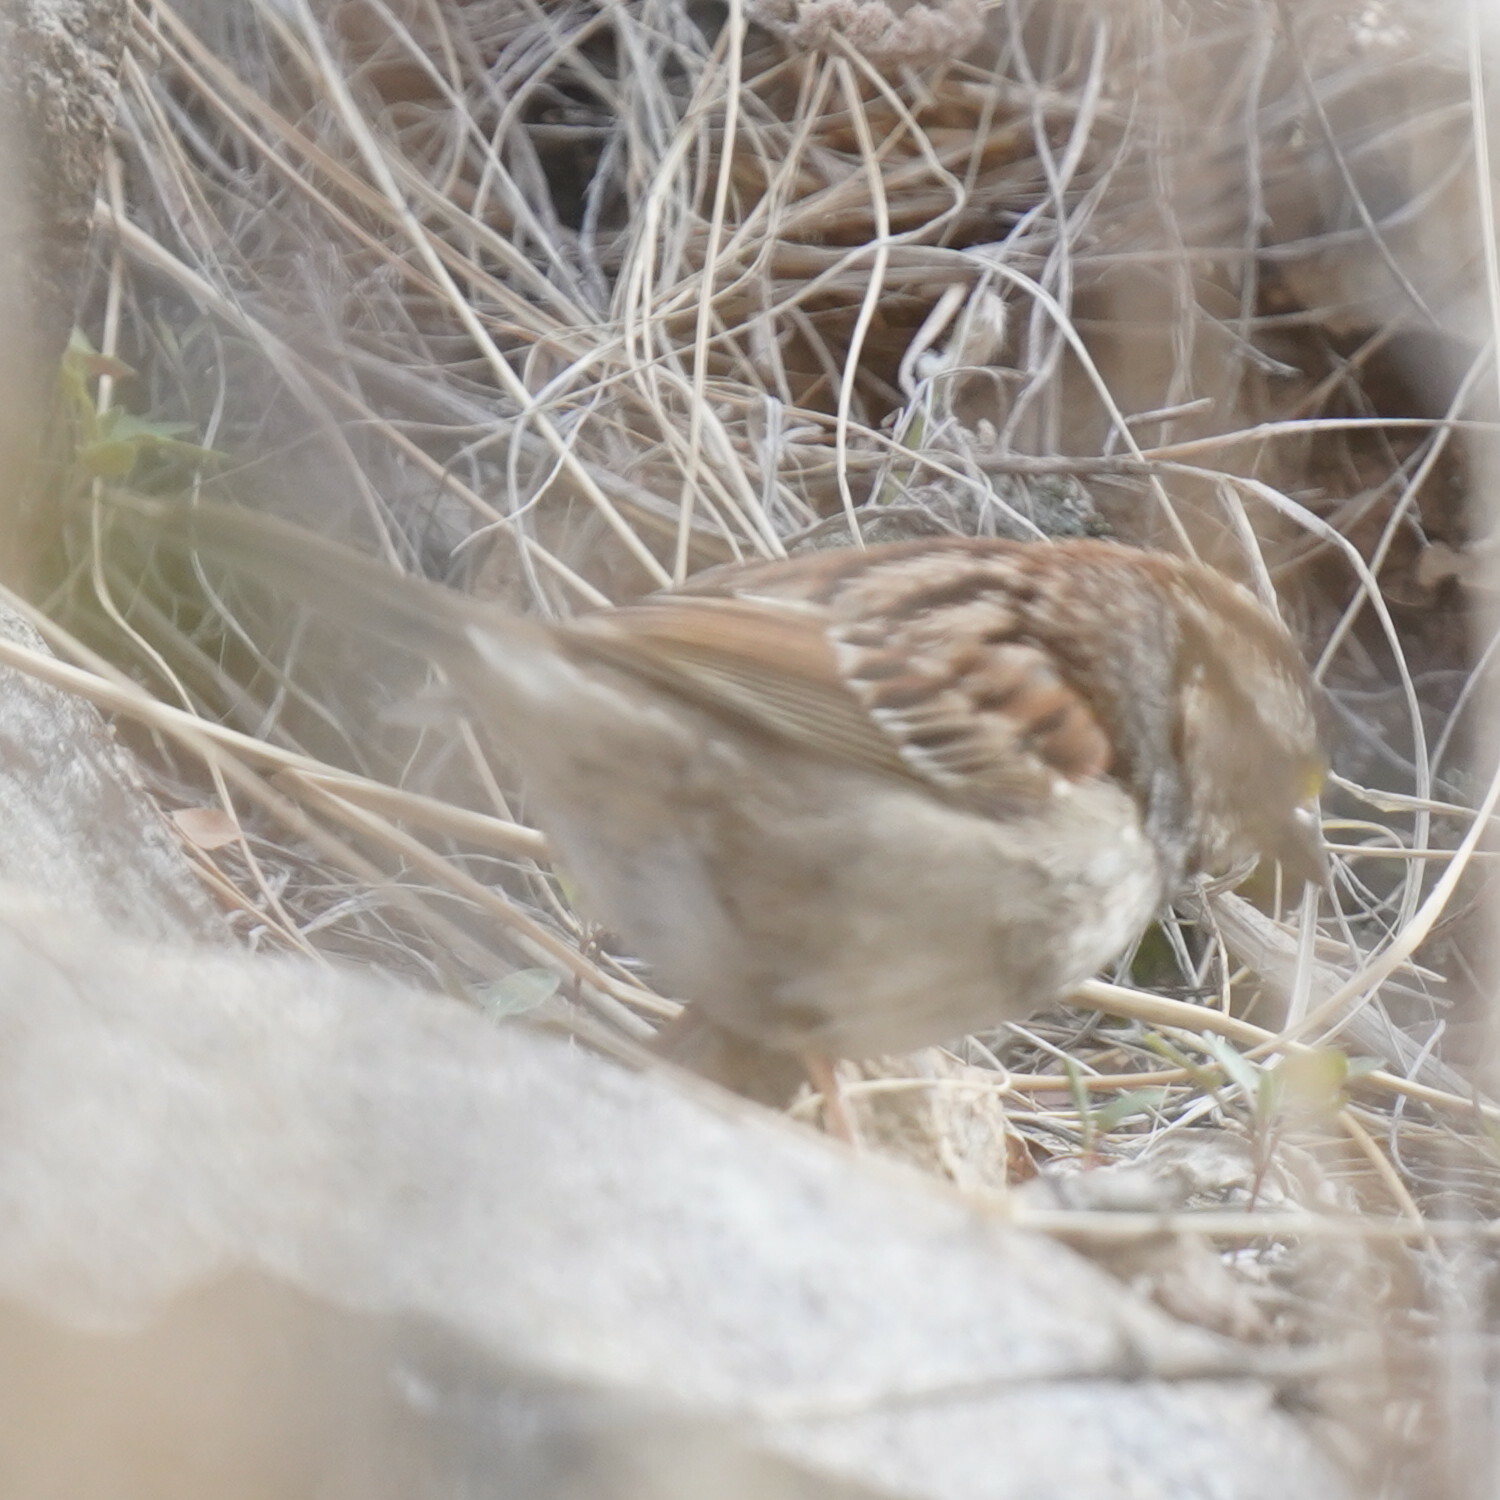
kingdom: Animalia
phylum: Chordata
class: Aves
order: Passeriformes
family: Passerellidae
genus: Zonotrichia
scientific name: Zonotrichia albicollis
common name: White-throated sparrow
